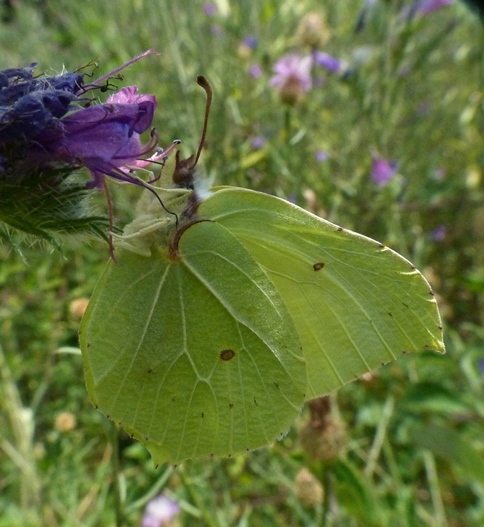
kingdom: Animalia
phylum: Arthropoda
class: Insecta
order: Lepidoptera
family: Pieridae
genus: Gonepteryx
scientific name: Gonepteryx rhamni
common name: Brimstone
